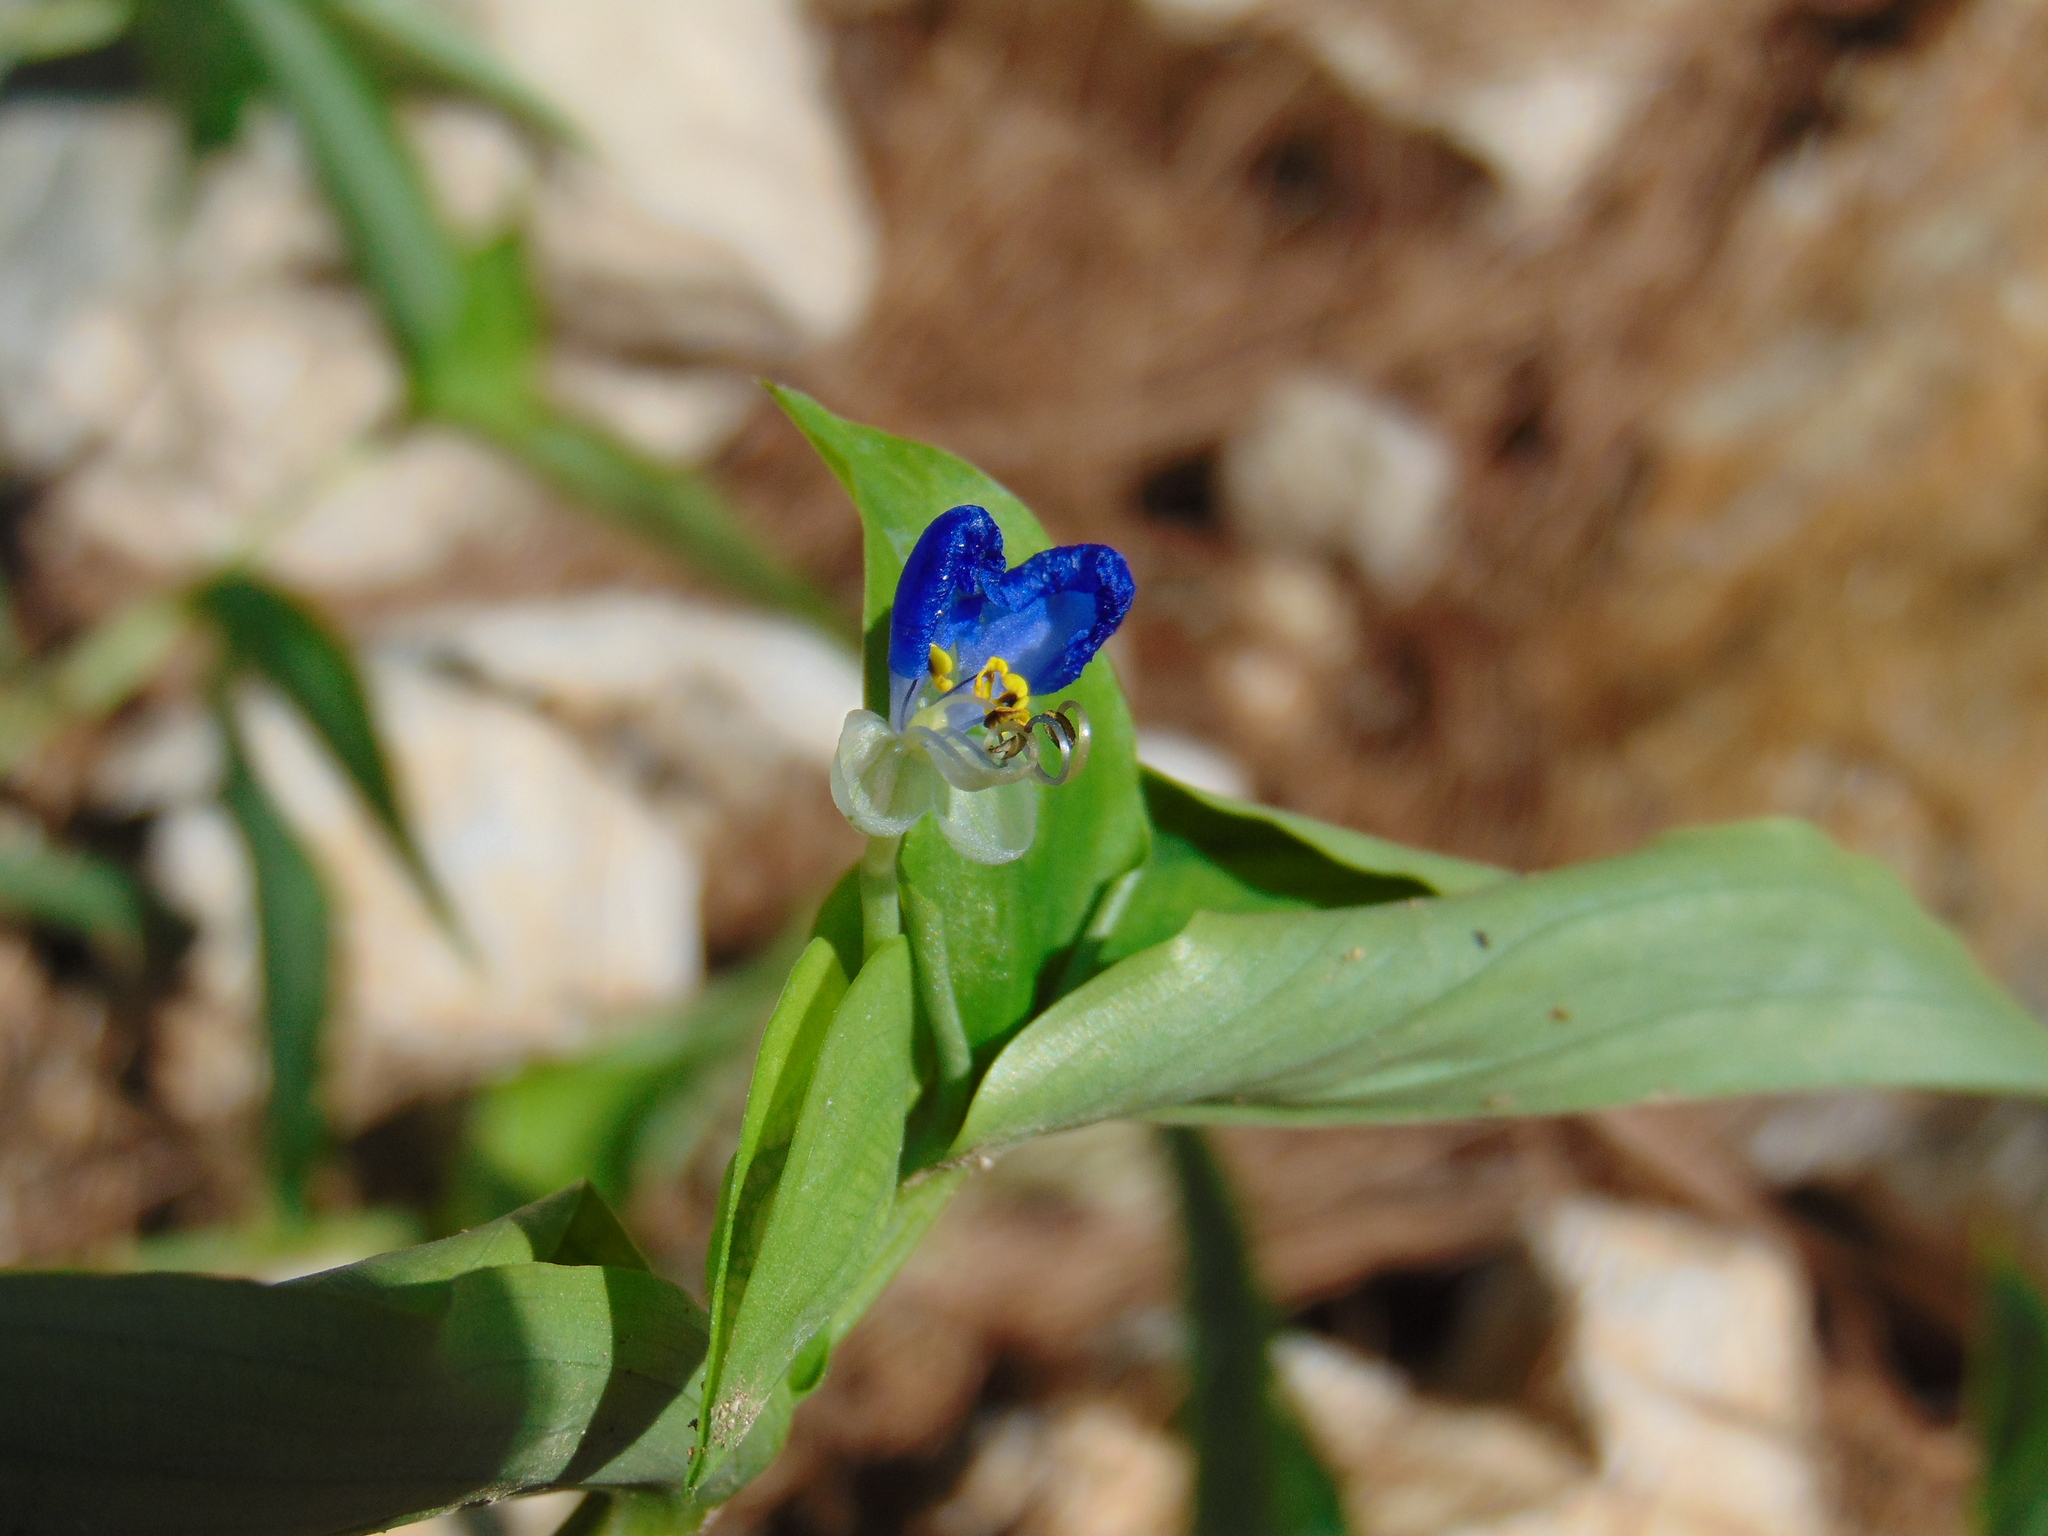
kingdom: Plantae
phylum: Tracheophyta
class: Liliopsida
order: Commelinales
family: Commelinaceae
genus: Commelina
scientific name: Commelina communis
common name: Asiatic dayflower
